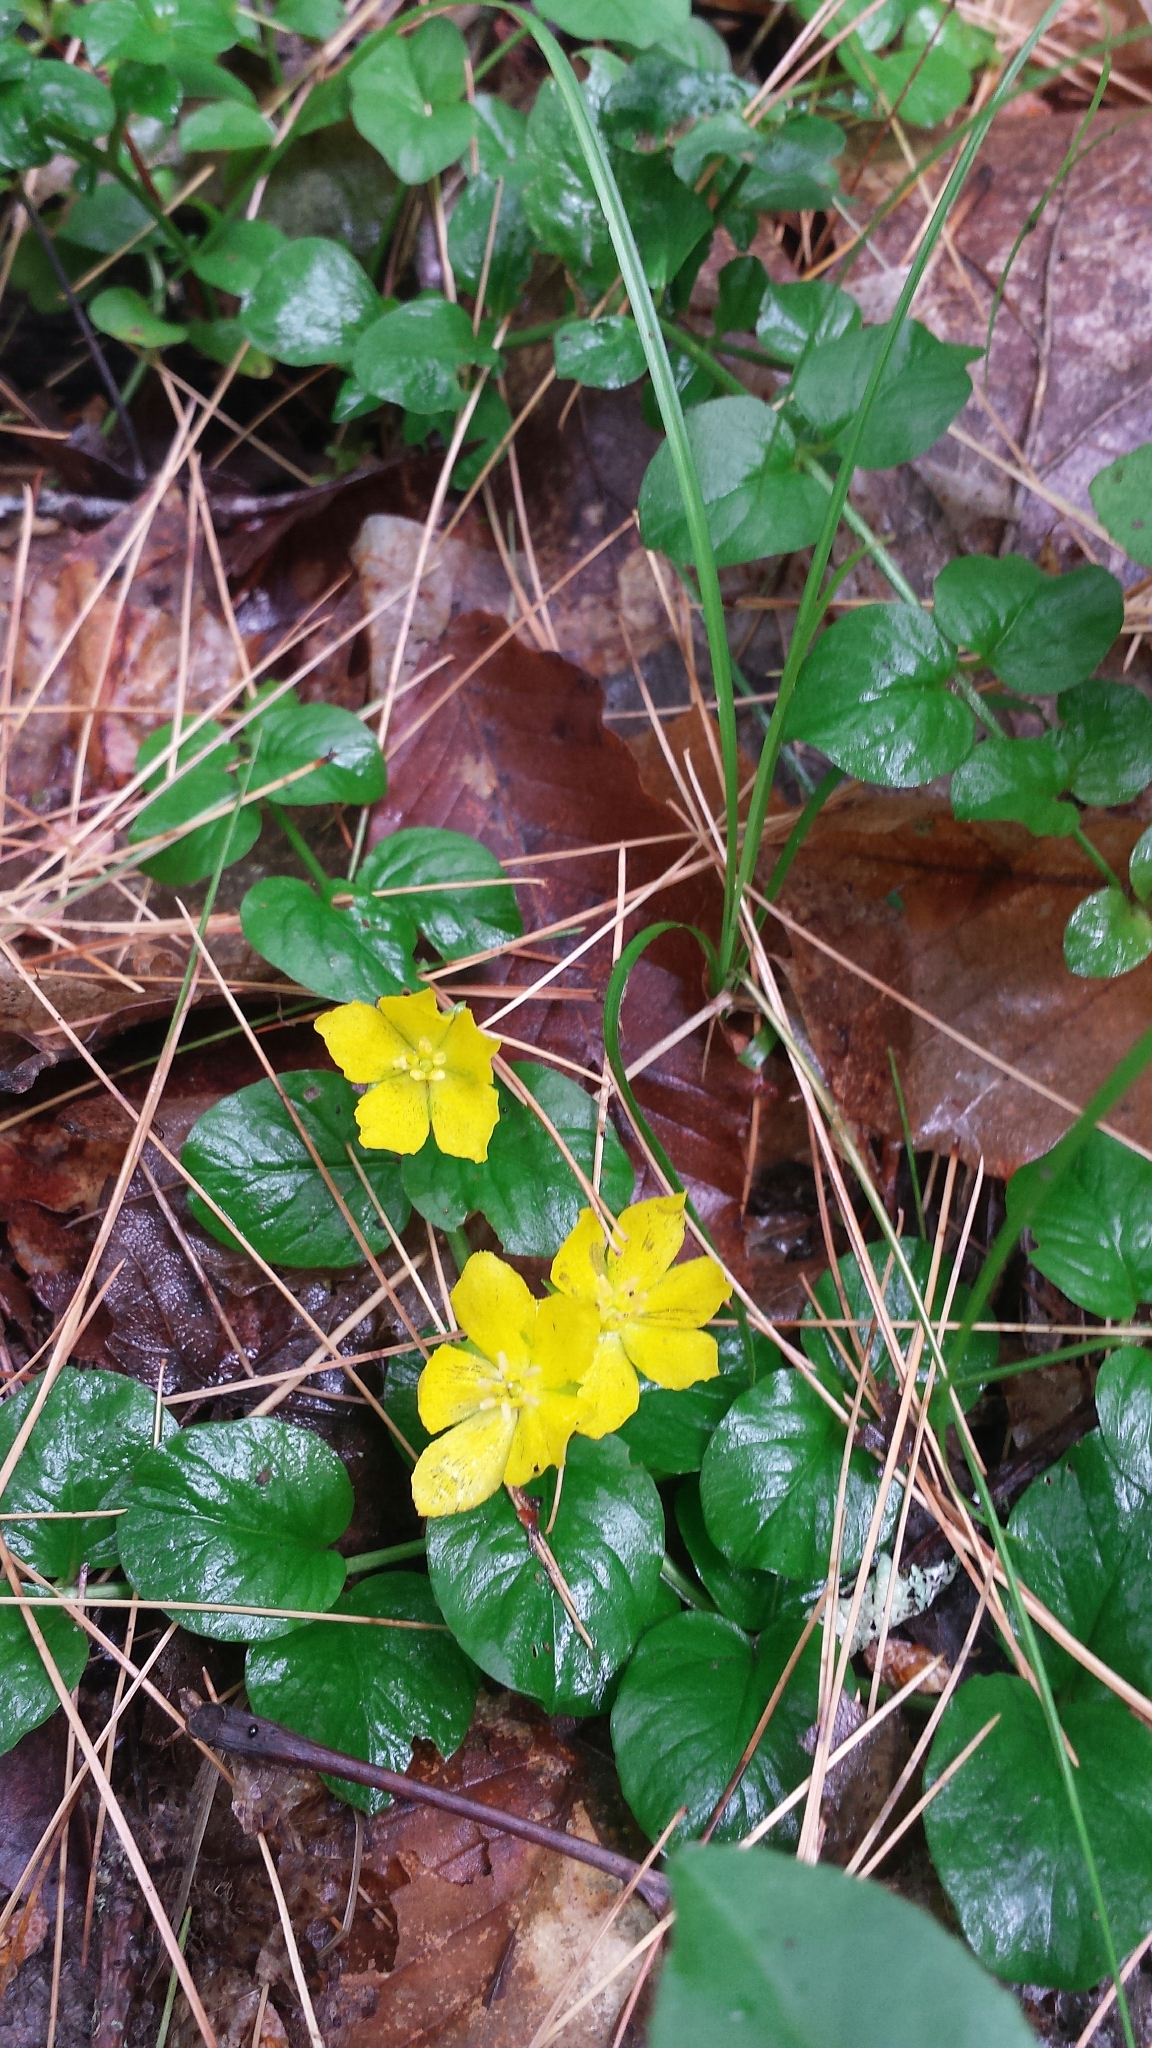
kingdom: Plantae
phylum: Tracheophyta
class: Magnoliopsida
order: Ericales
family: Primulaceae
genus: Lysimachia
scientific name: Lysimachia nummularia
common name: Moneywort
